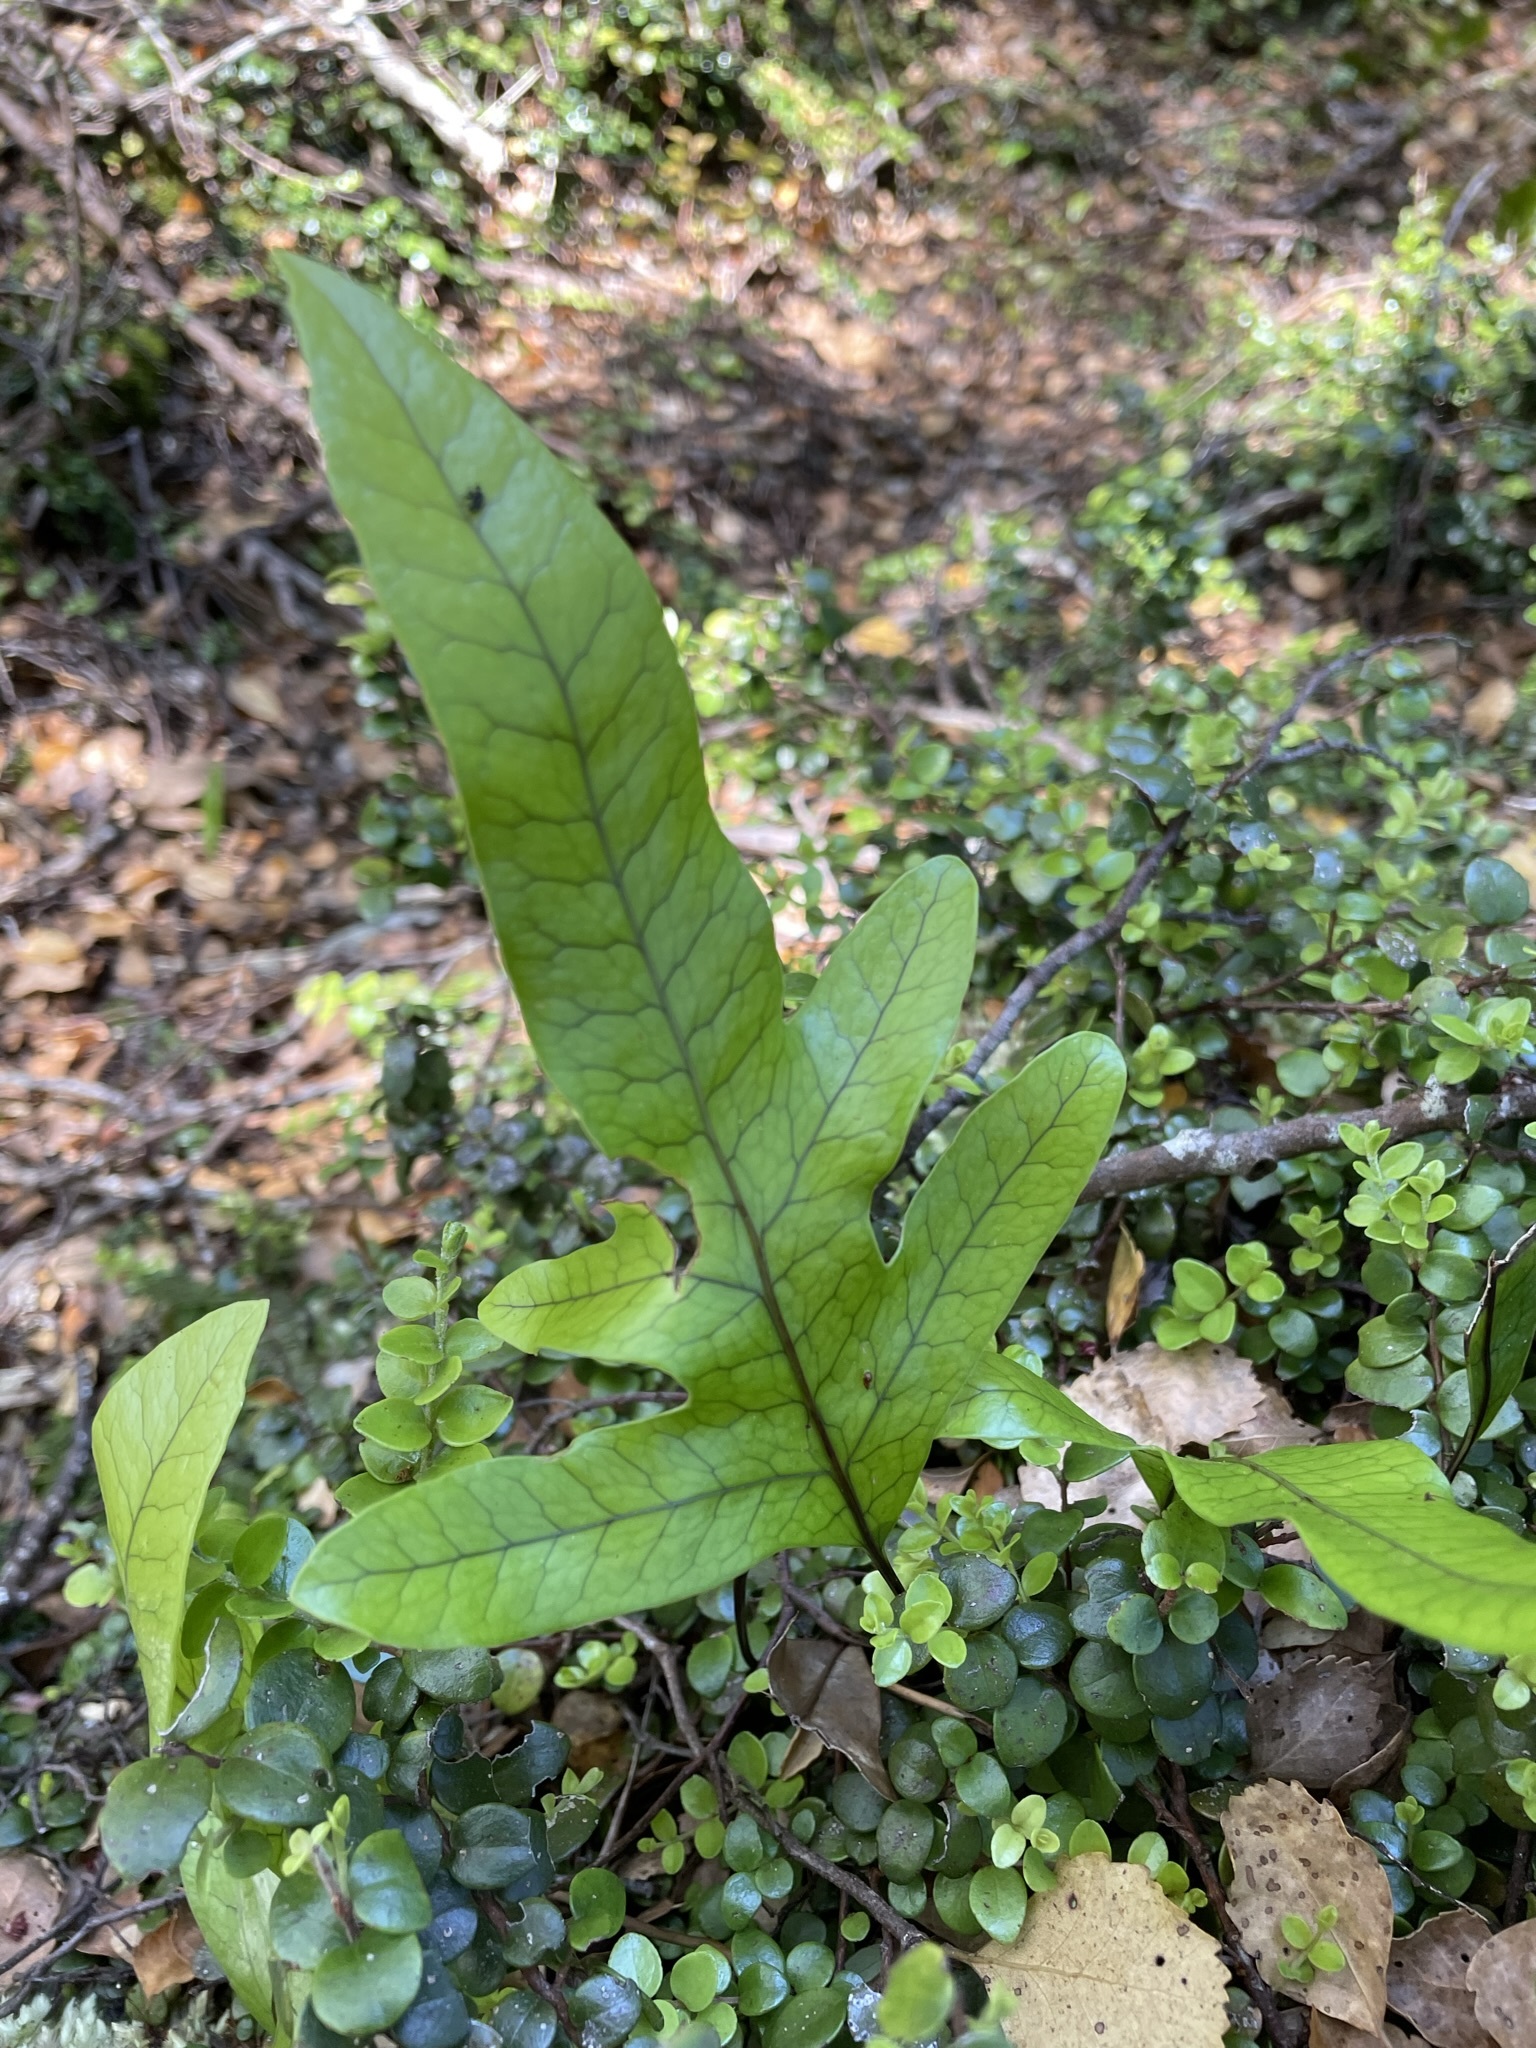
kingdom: Plantae
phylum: Tracheophyta
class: Polypodiopsida
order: Polypodiales
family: Polypodiaceae
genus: Lecanopteris
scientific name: Lecanopteris pustulata
